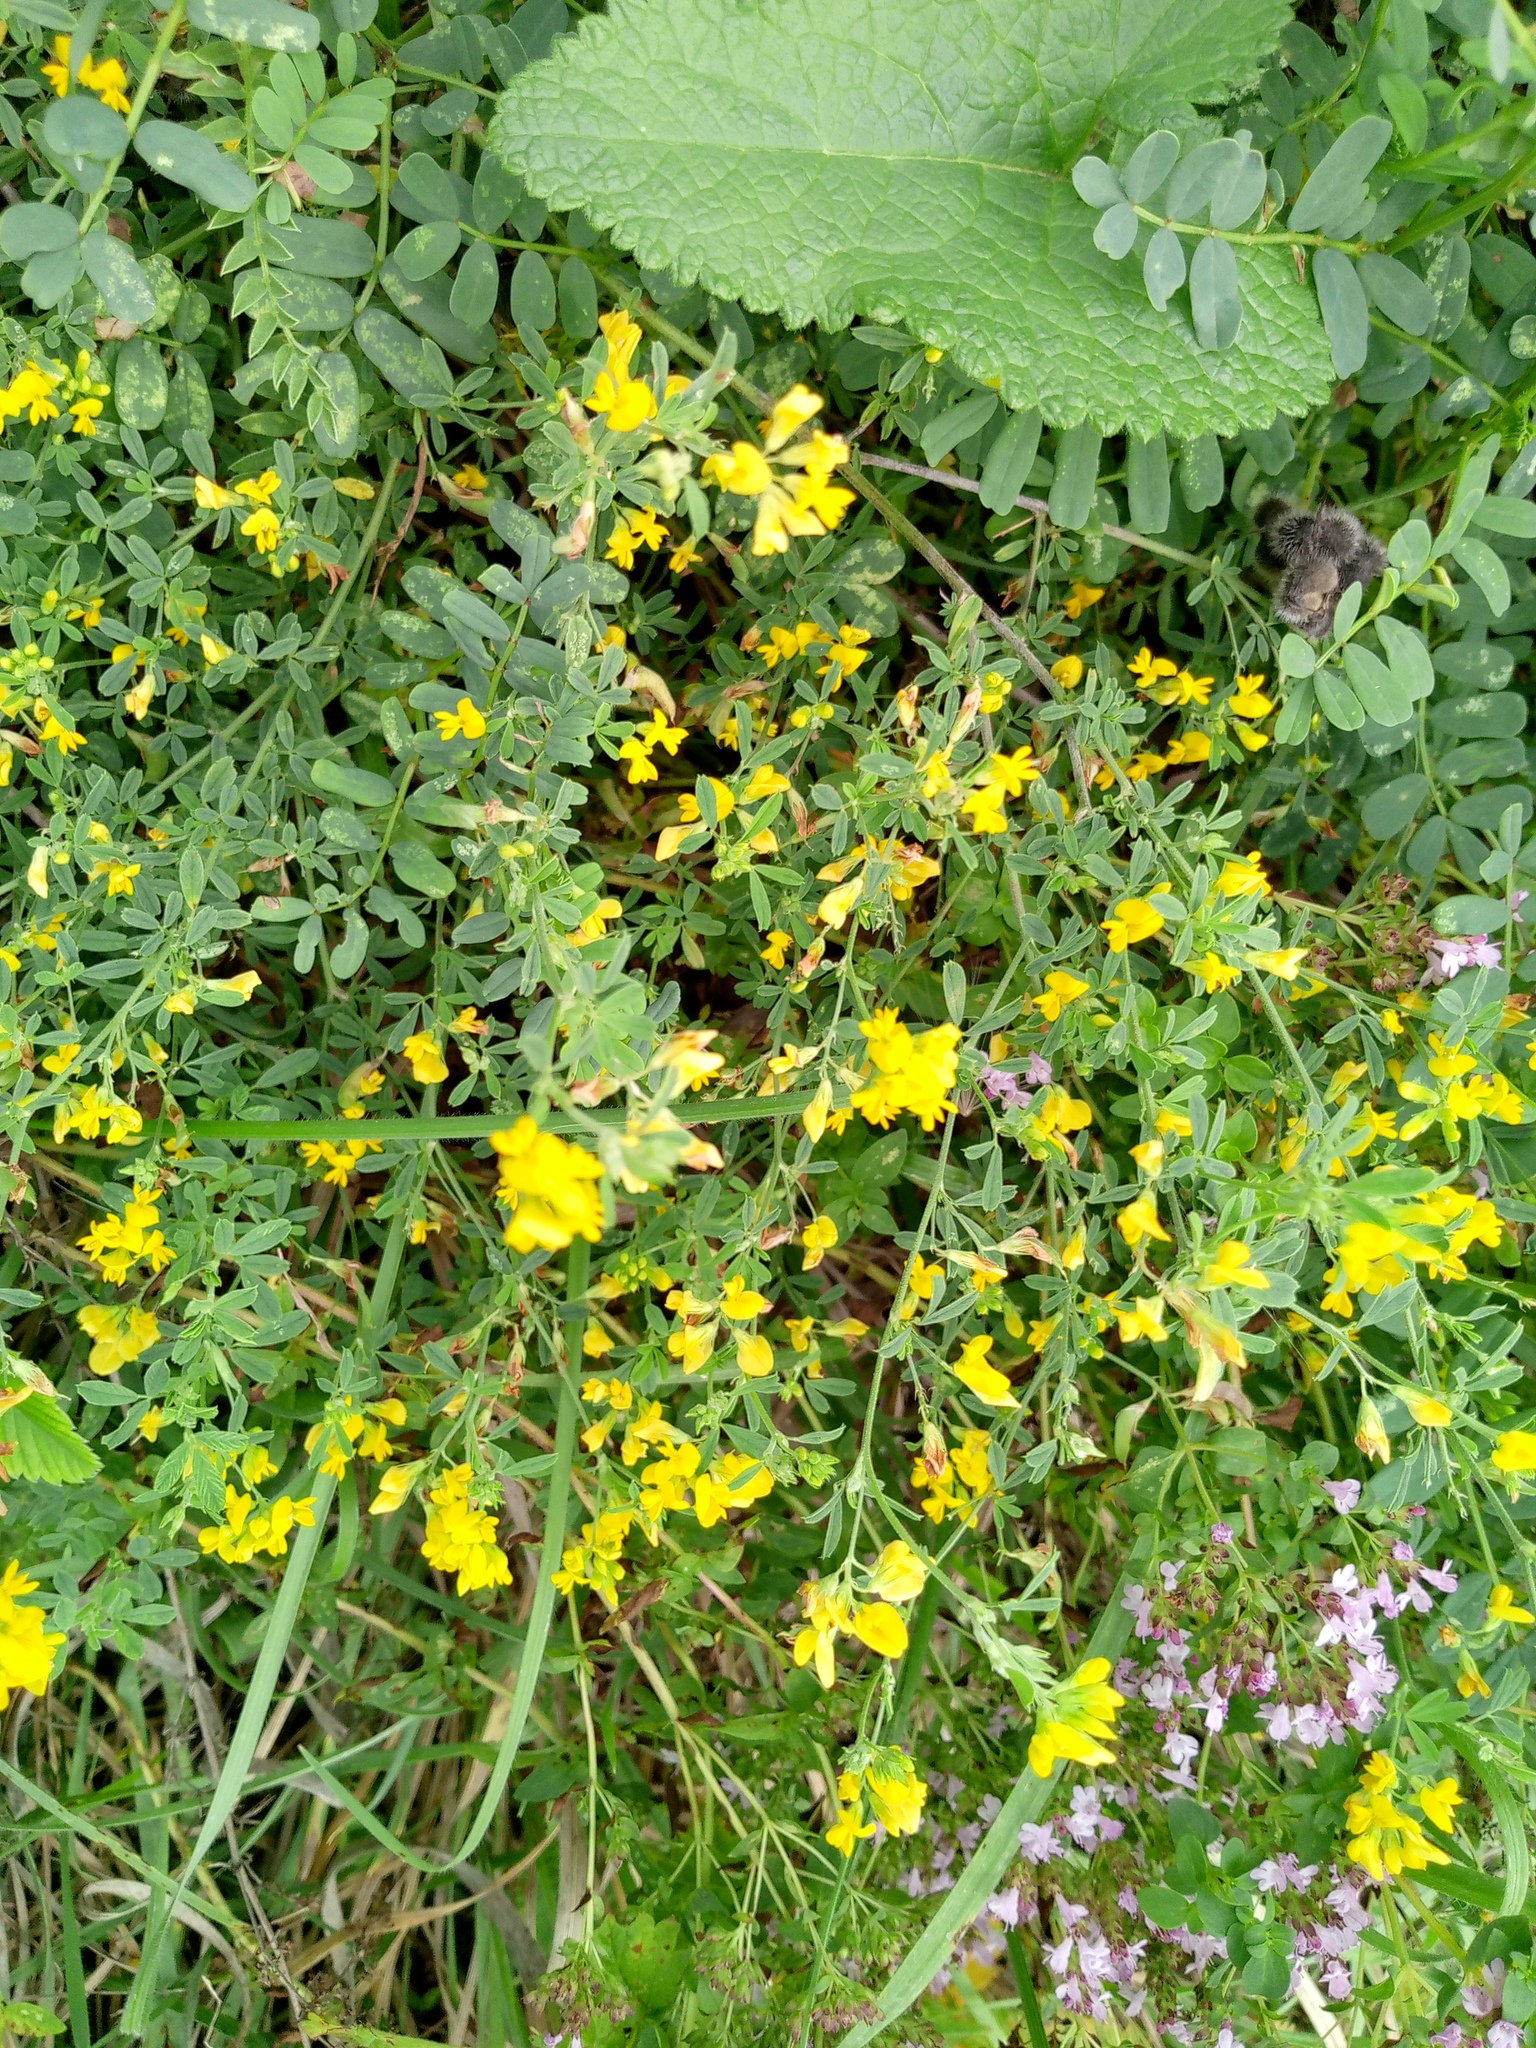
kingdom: Plantae
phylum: Tracheophyta
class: Magnoliopsida
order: Fabales
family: Fabaceae
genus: Medicago
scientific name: Medicago falcata
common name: Sickle medick
